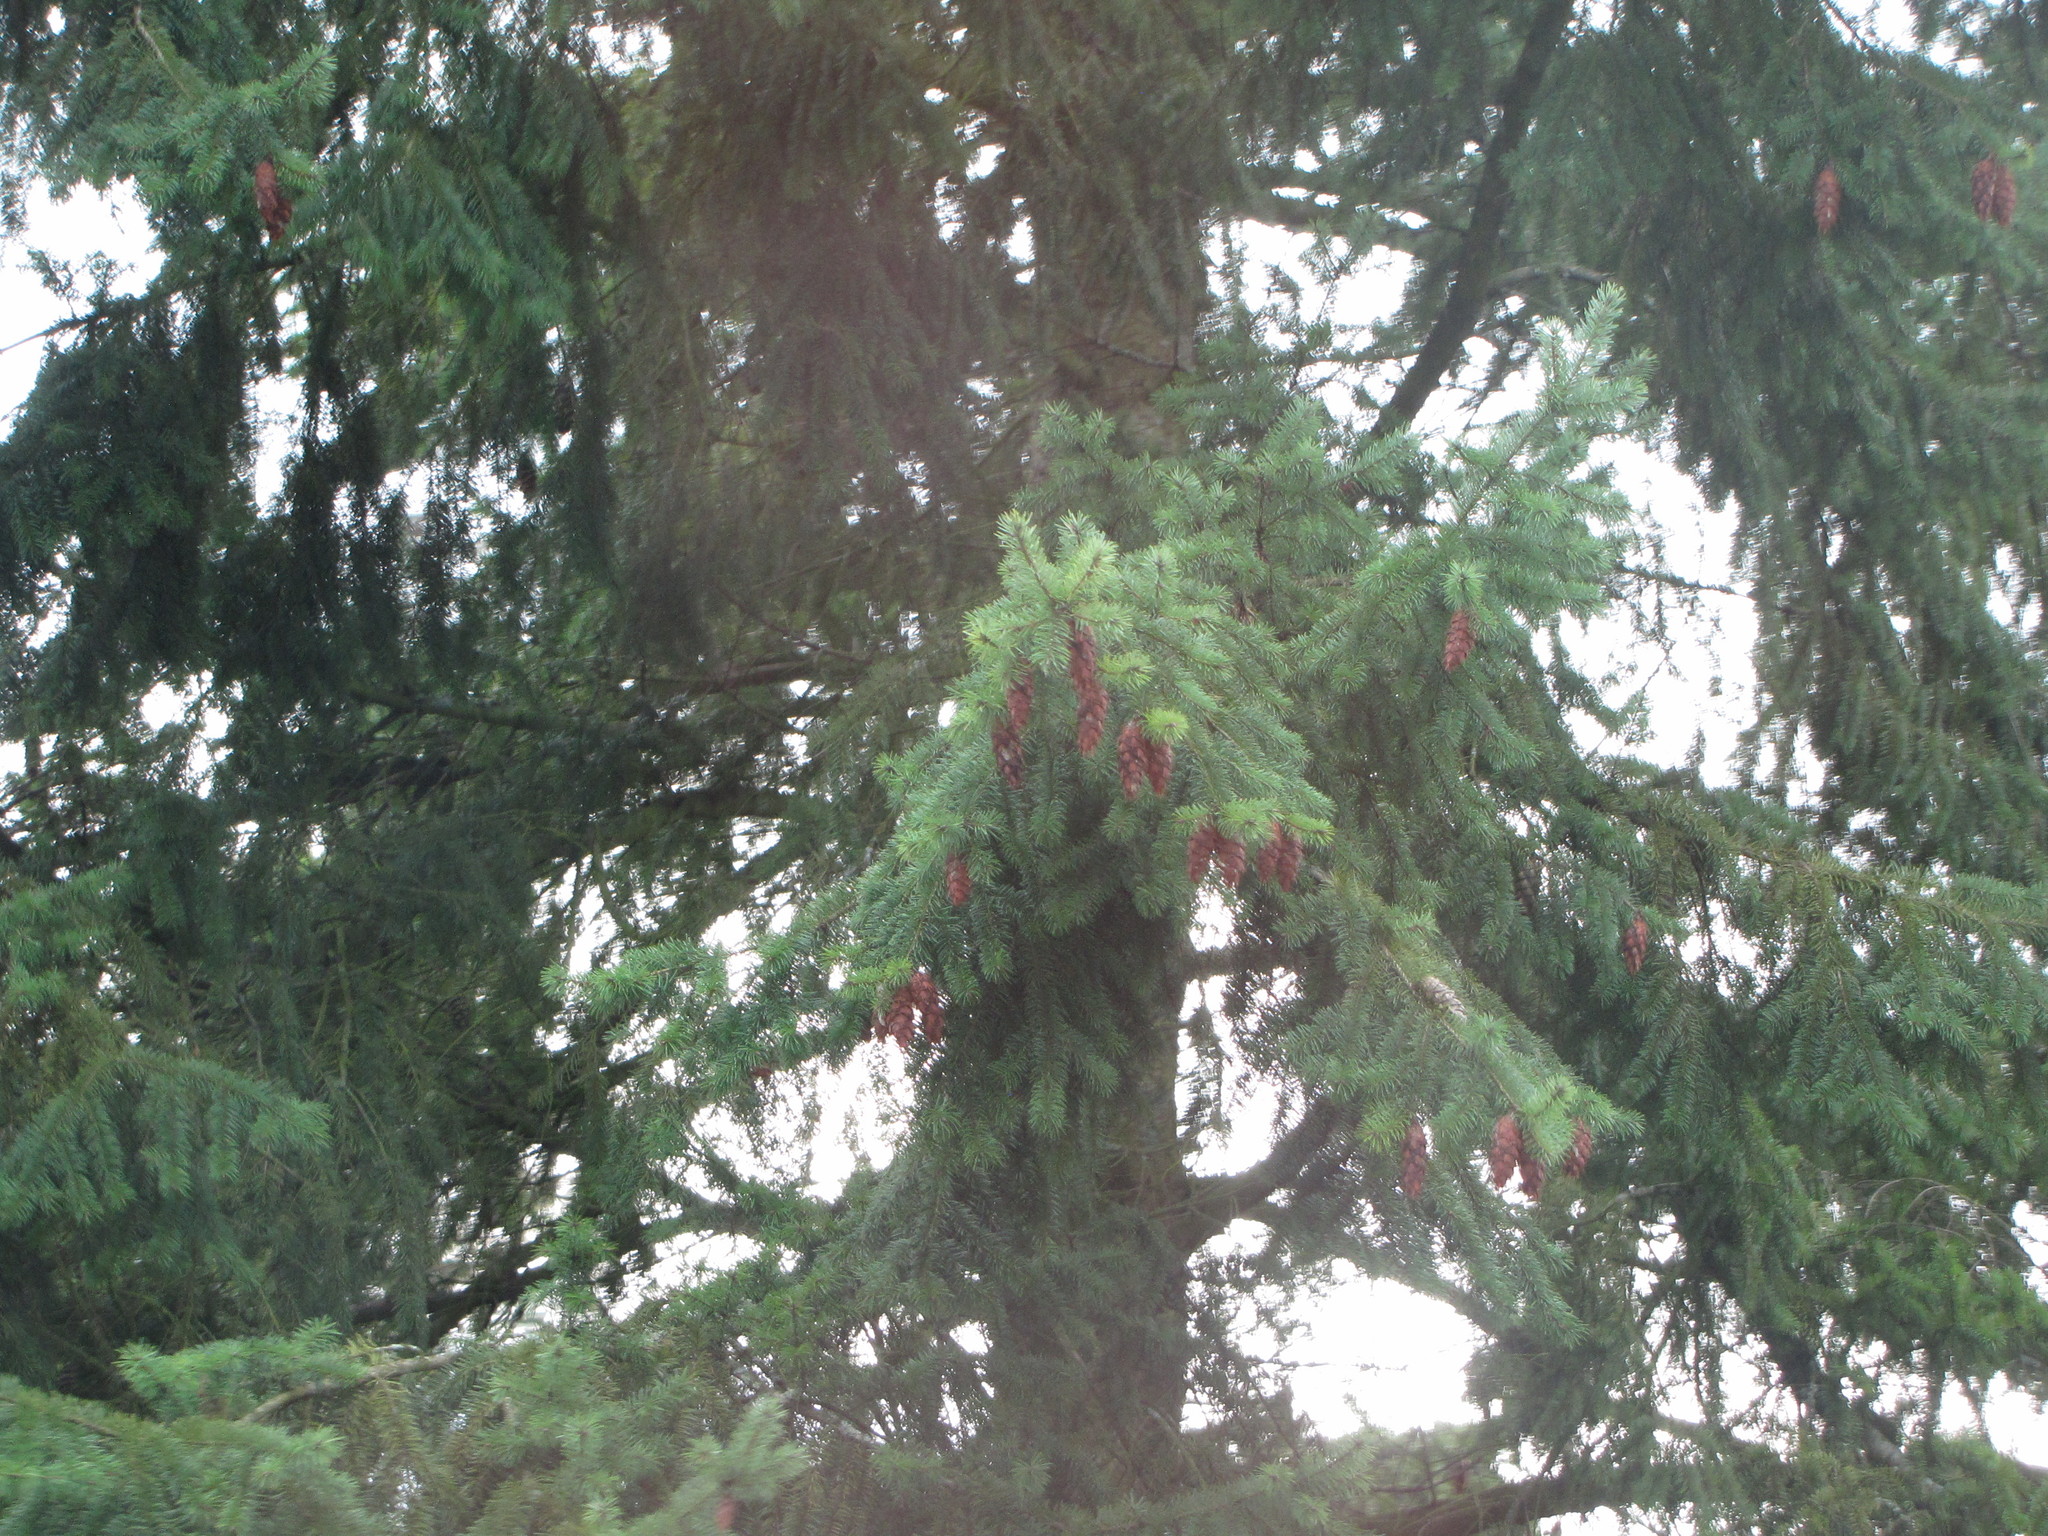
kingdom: Plantae
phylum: Tracheophyta
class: Pinopsida
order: Pinales
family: Pinaceae
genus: Pseudotsuga
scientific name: Pseudotsuga menziesii
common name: Douglas fir
